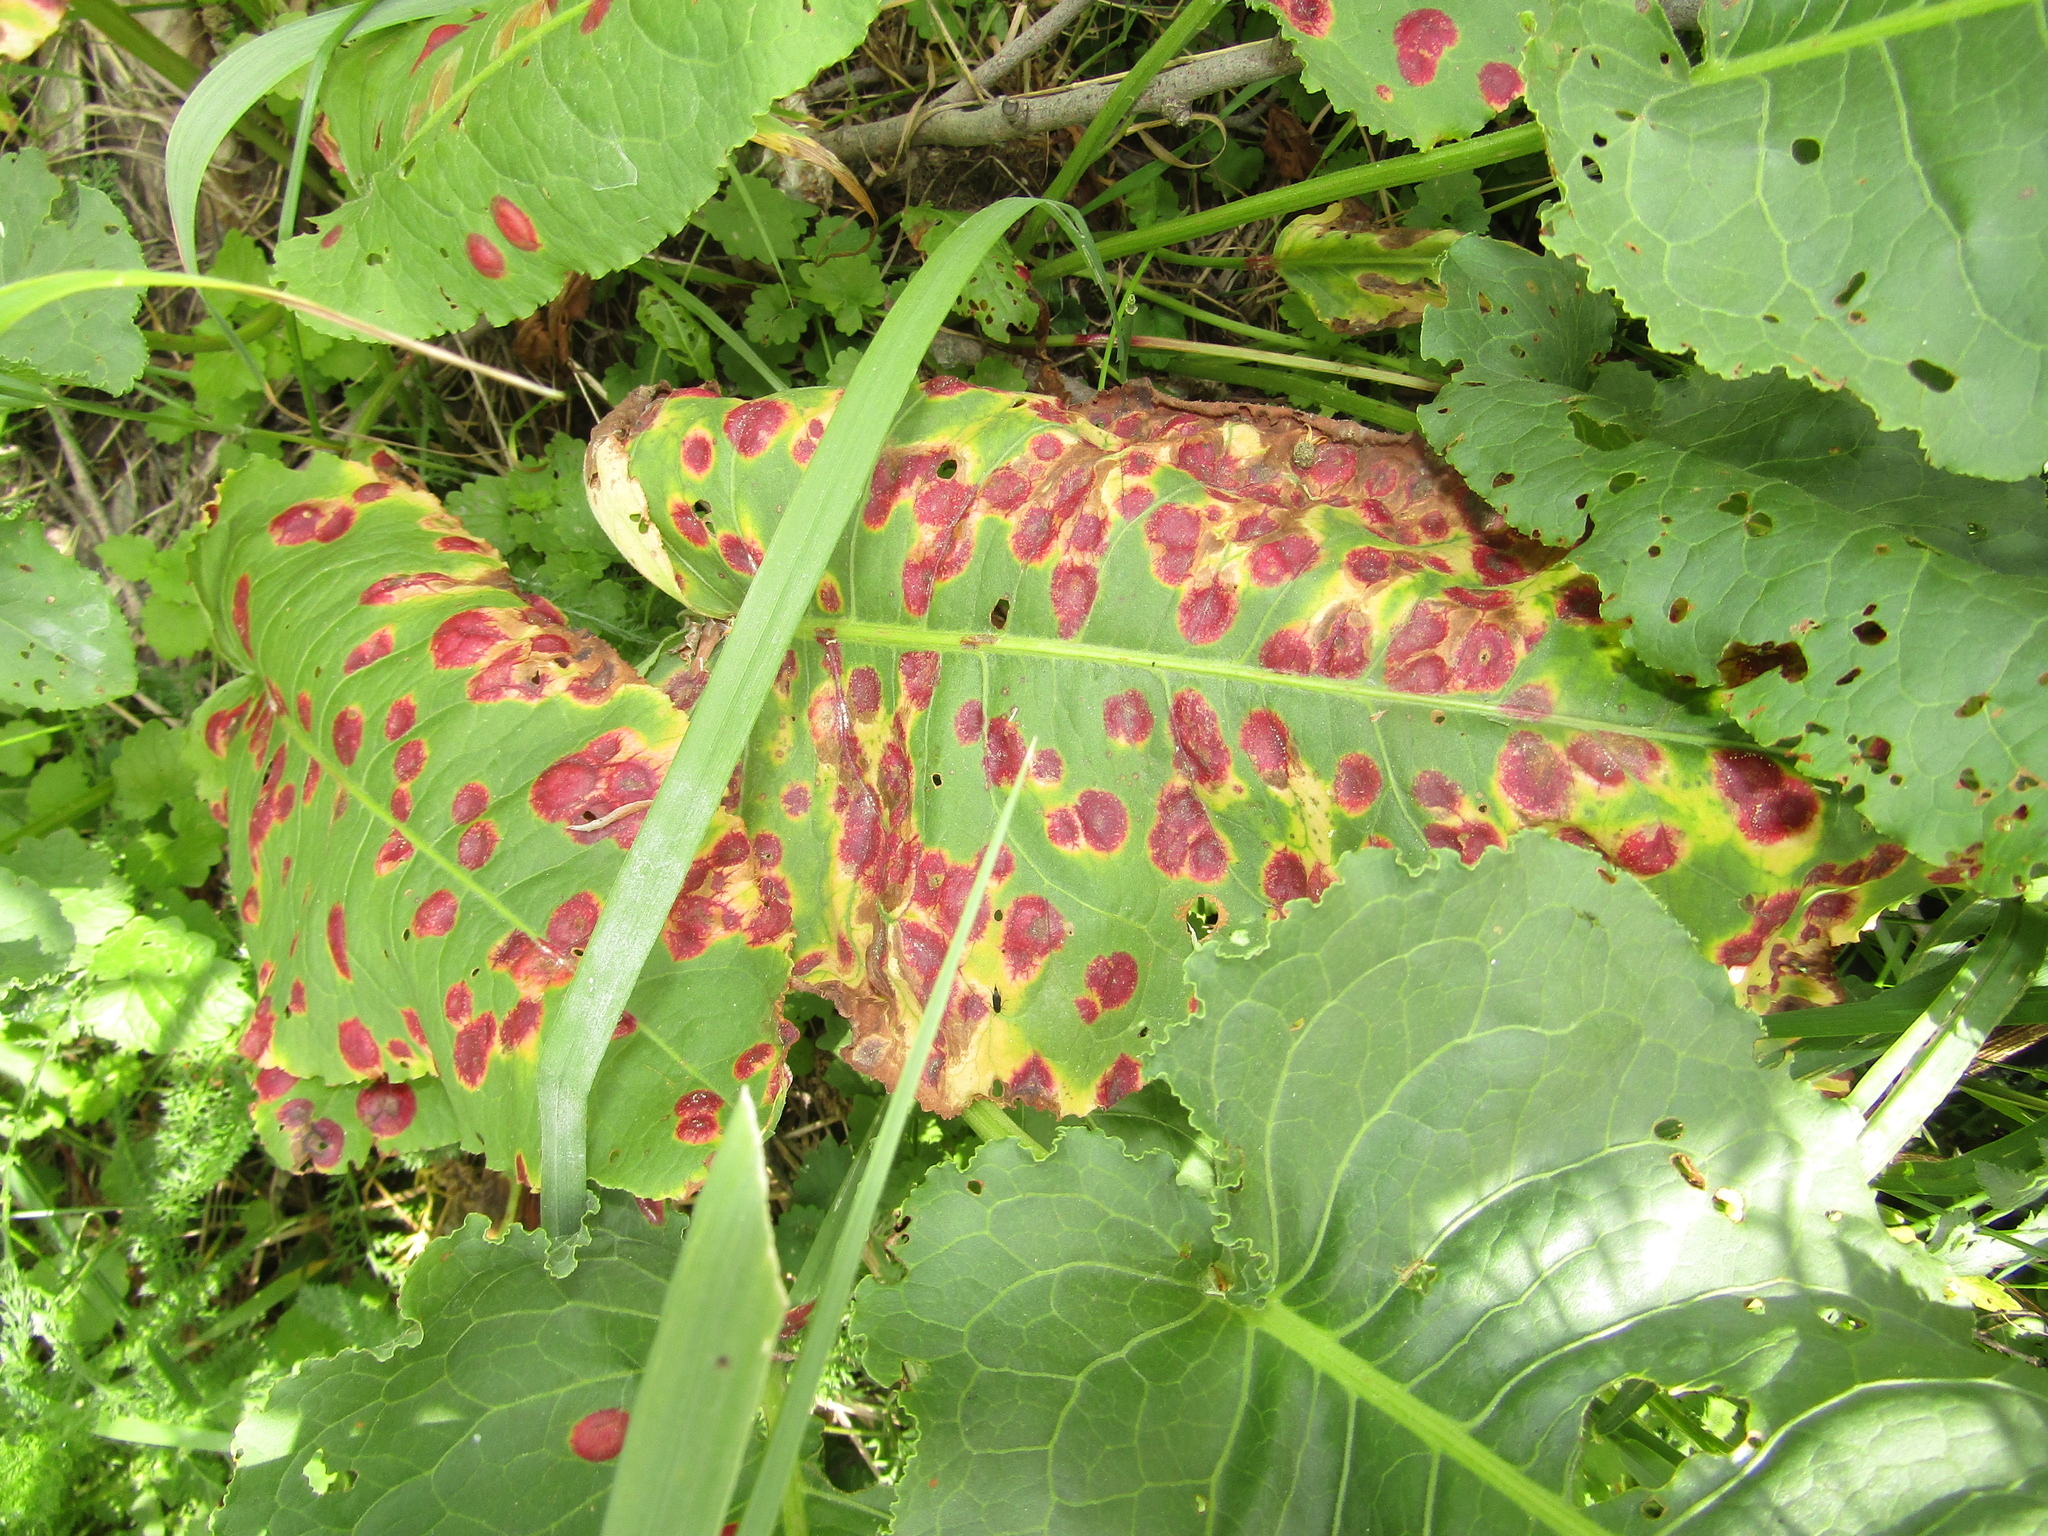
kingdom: Fungi
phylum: Basidiomycota
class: Pucciniomycetes
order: Pucciniales
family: Pucciniaceae
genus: Puccinia
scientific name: Puccinia phragmitis
